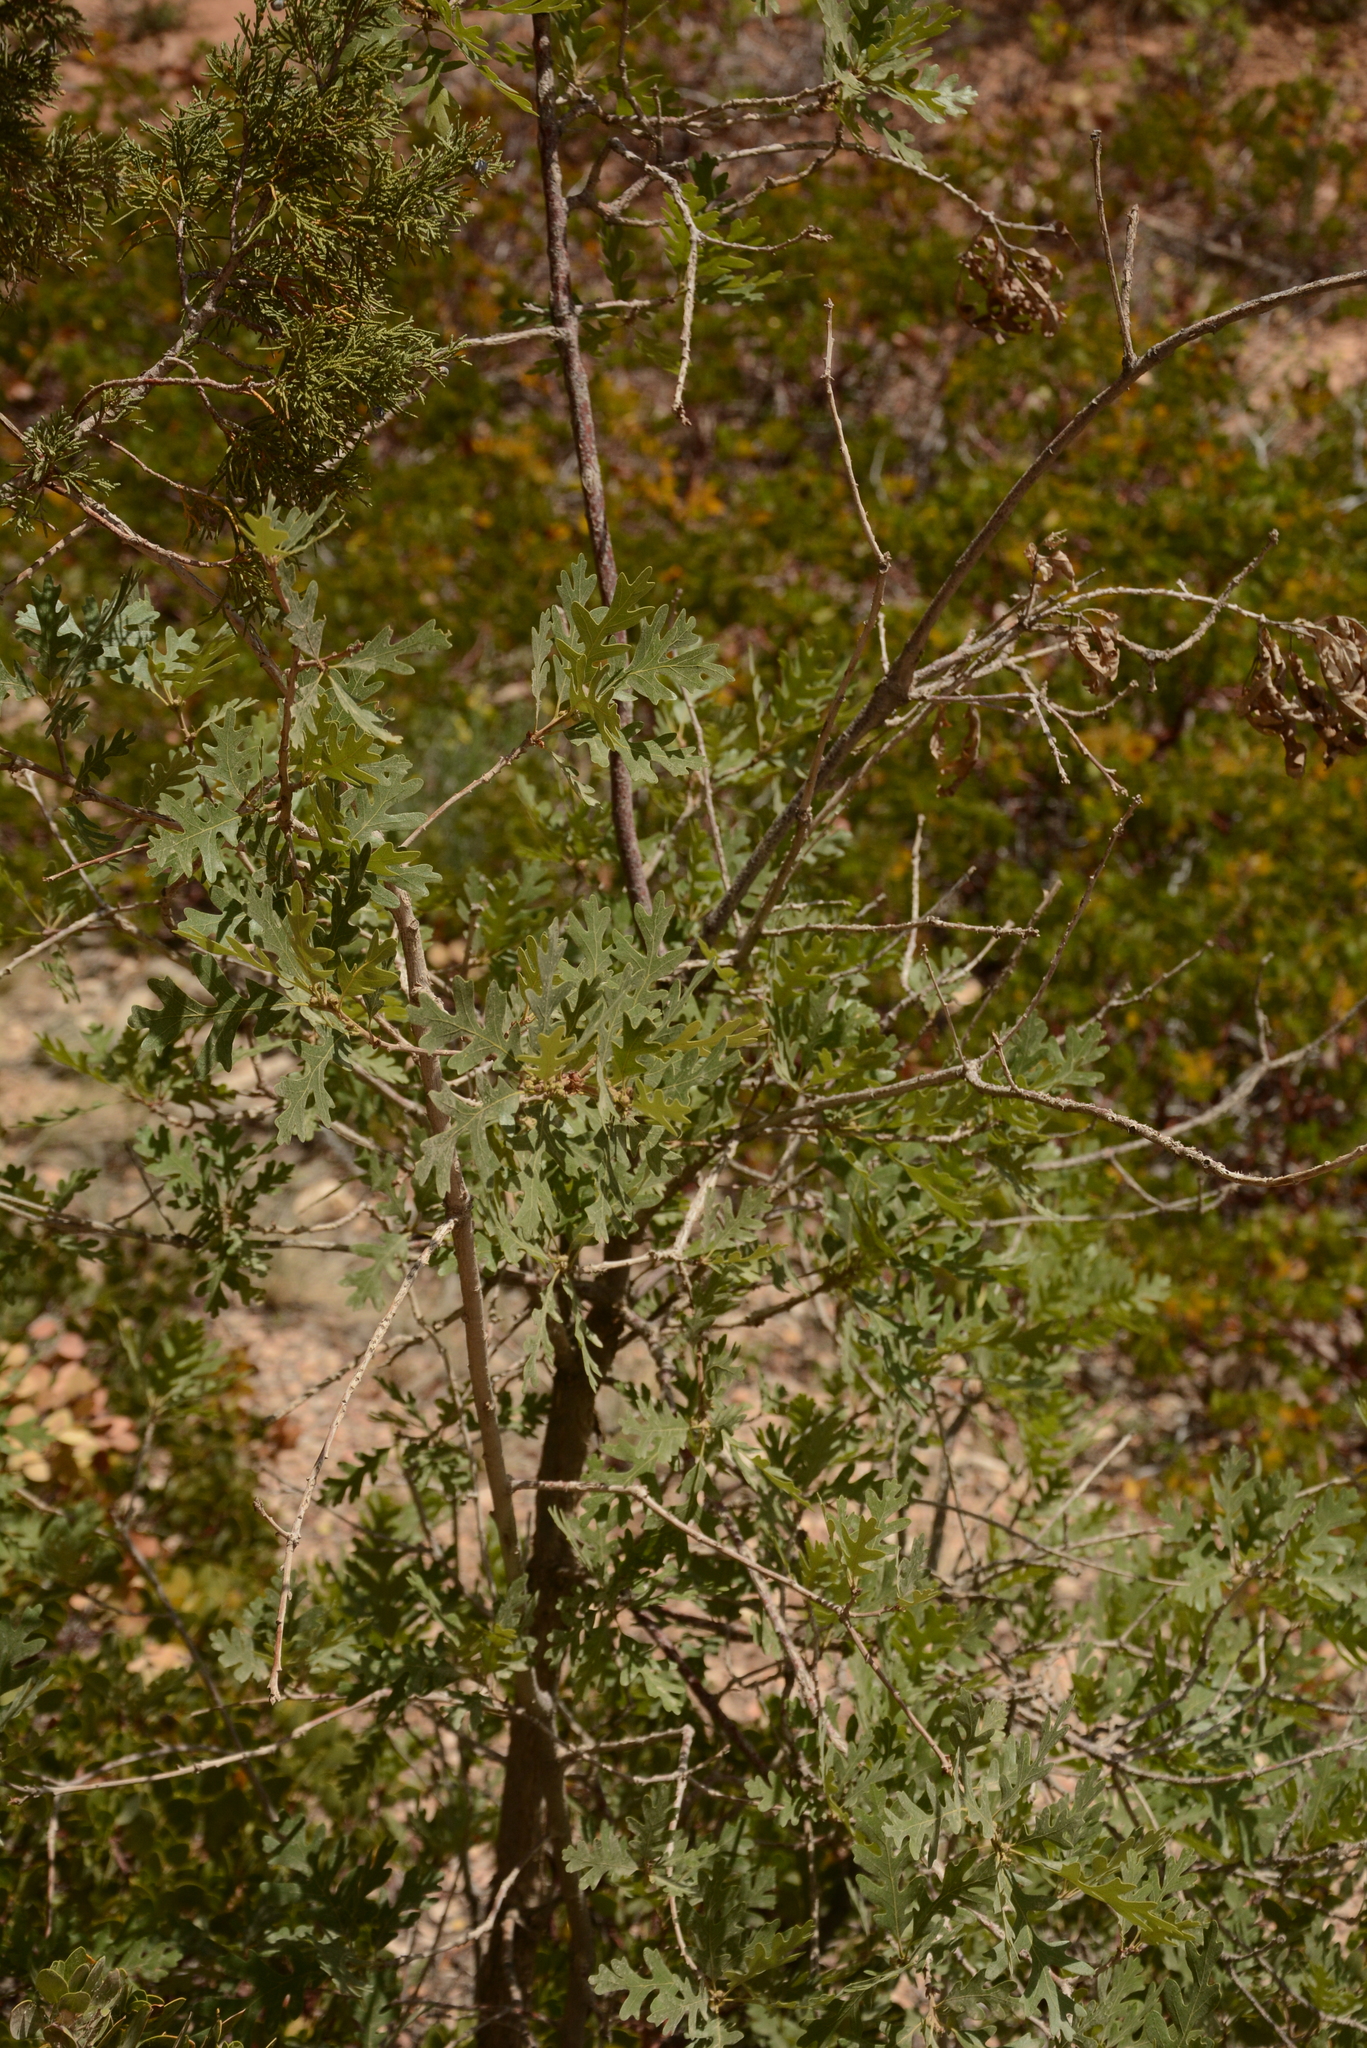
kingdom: Plantae
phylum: Tracheophyta
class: Magnoliopsida
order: Fagales
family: Fagaceae
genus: Quercus
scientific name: Quercus gambelii
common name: Gambel oak
